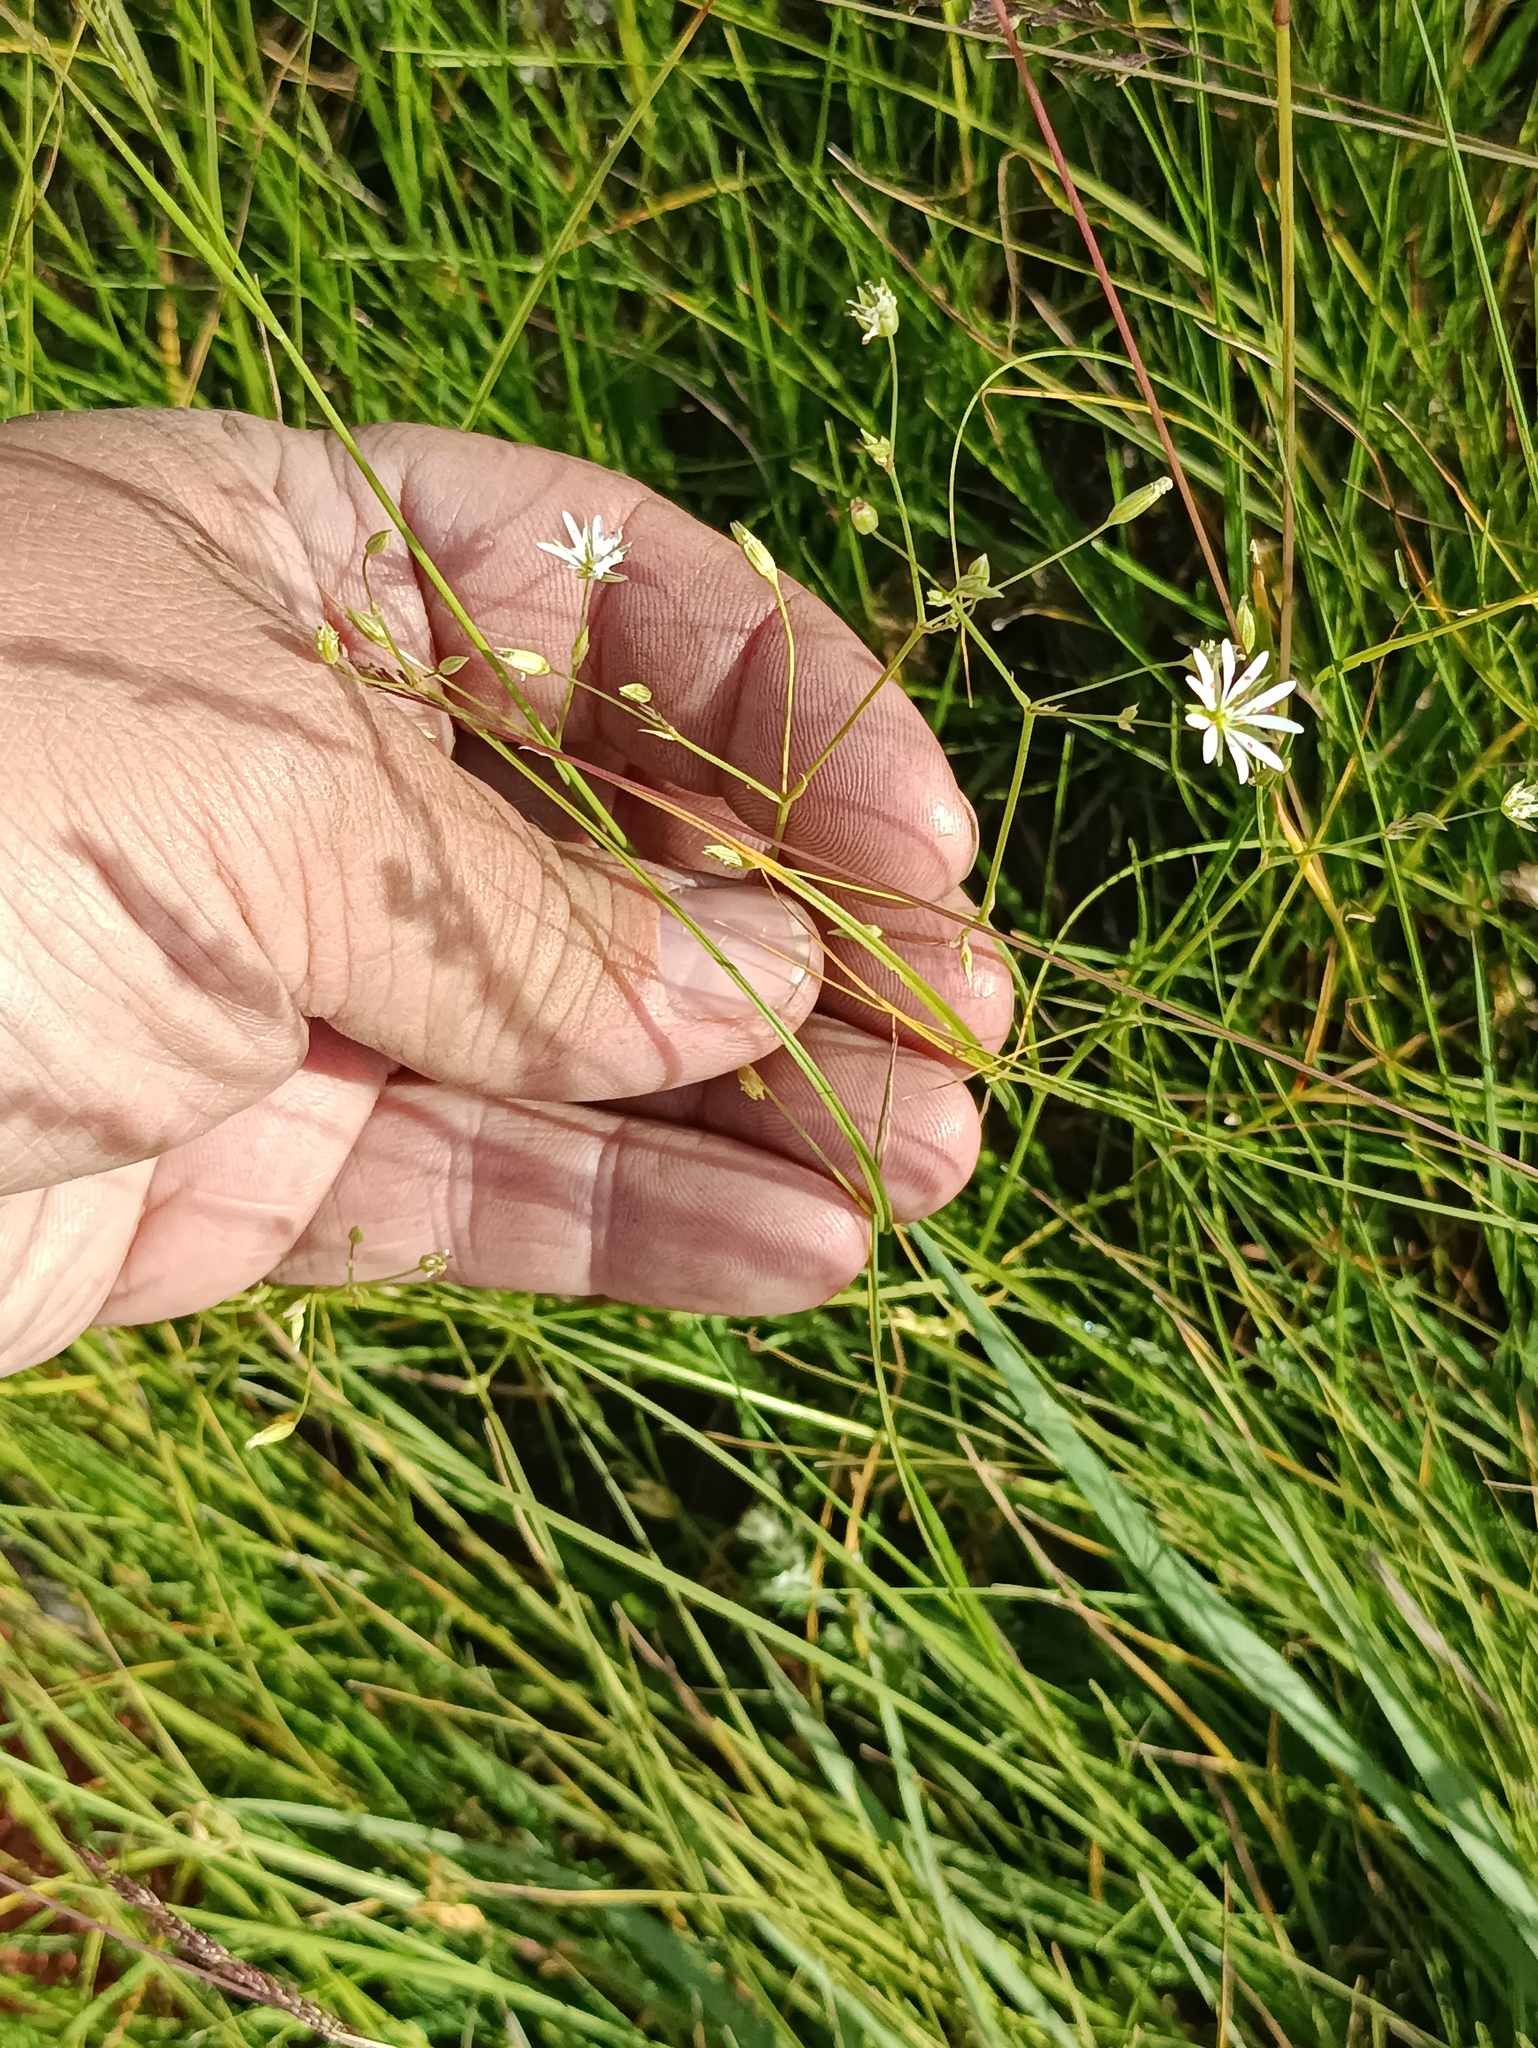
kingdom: Plantae
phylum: Tracheophyta
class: Magnoliopsida
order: Caryophyllales
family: Caryophyllaceae
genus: Stellaria
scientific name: Stellaria graminea
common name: Grass-like starwort
